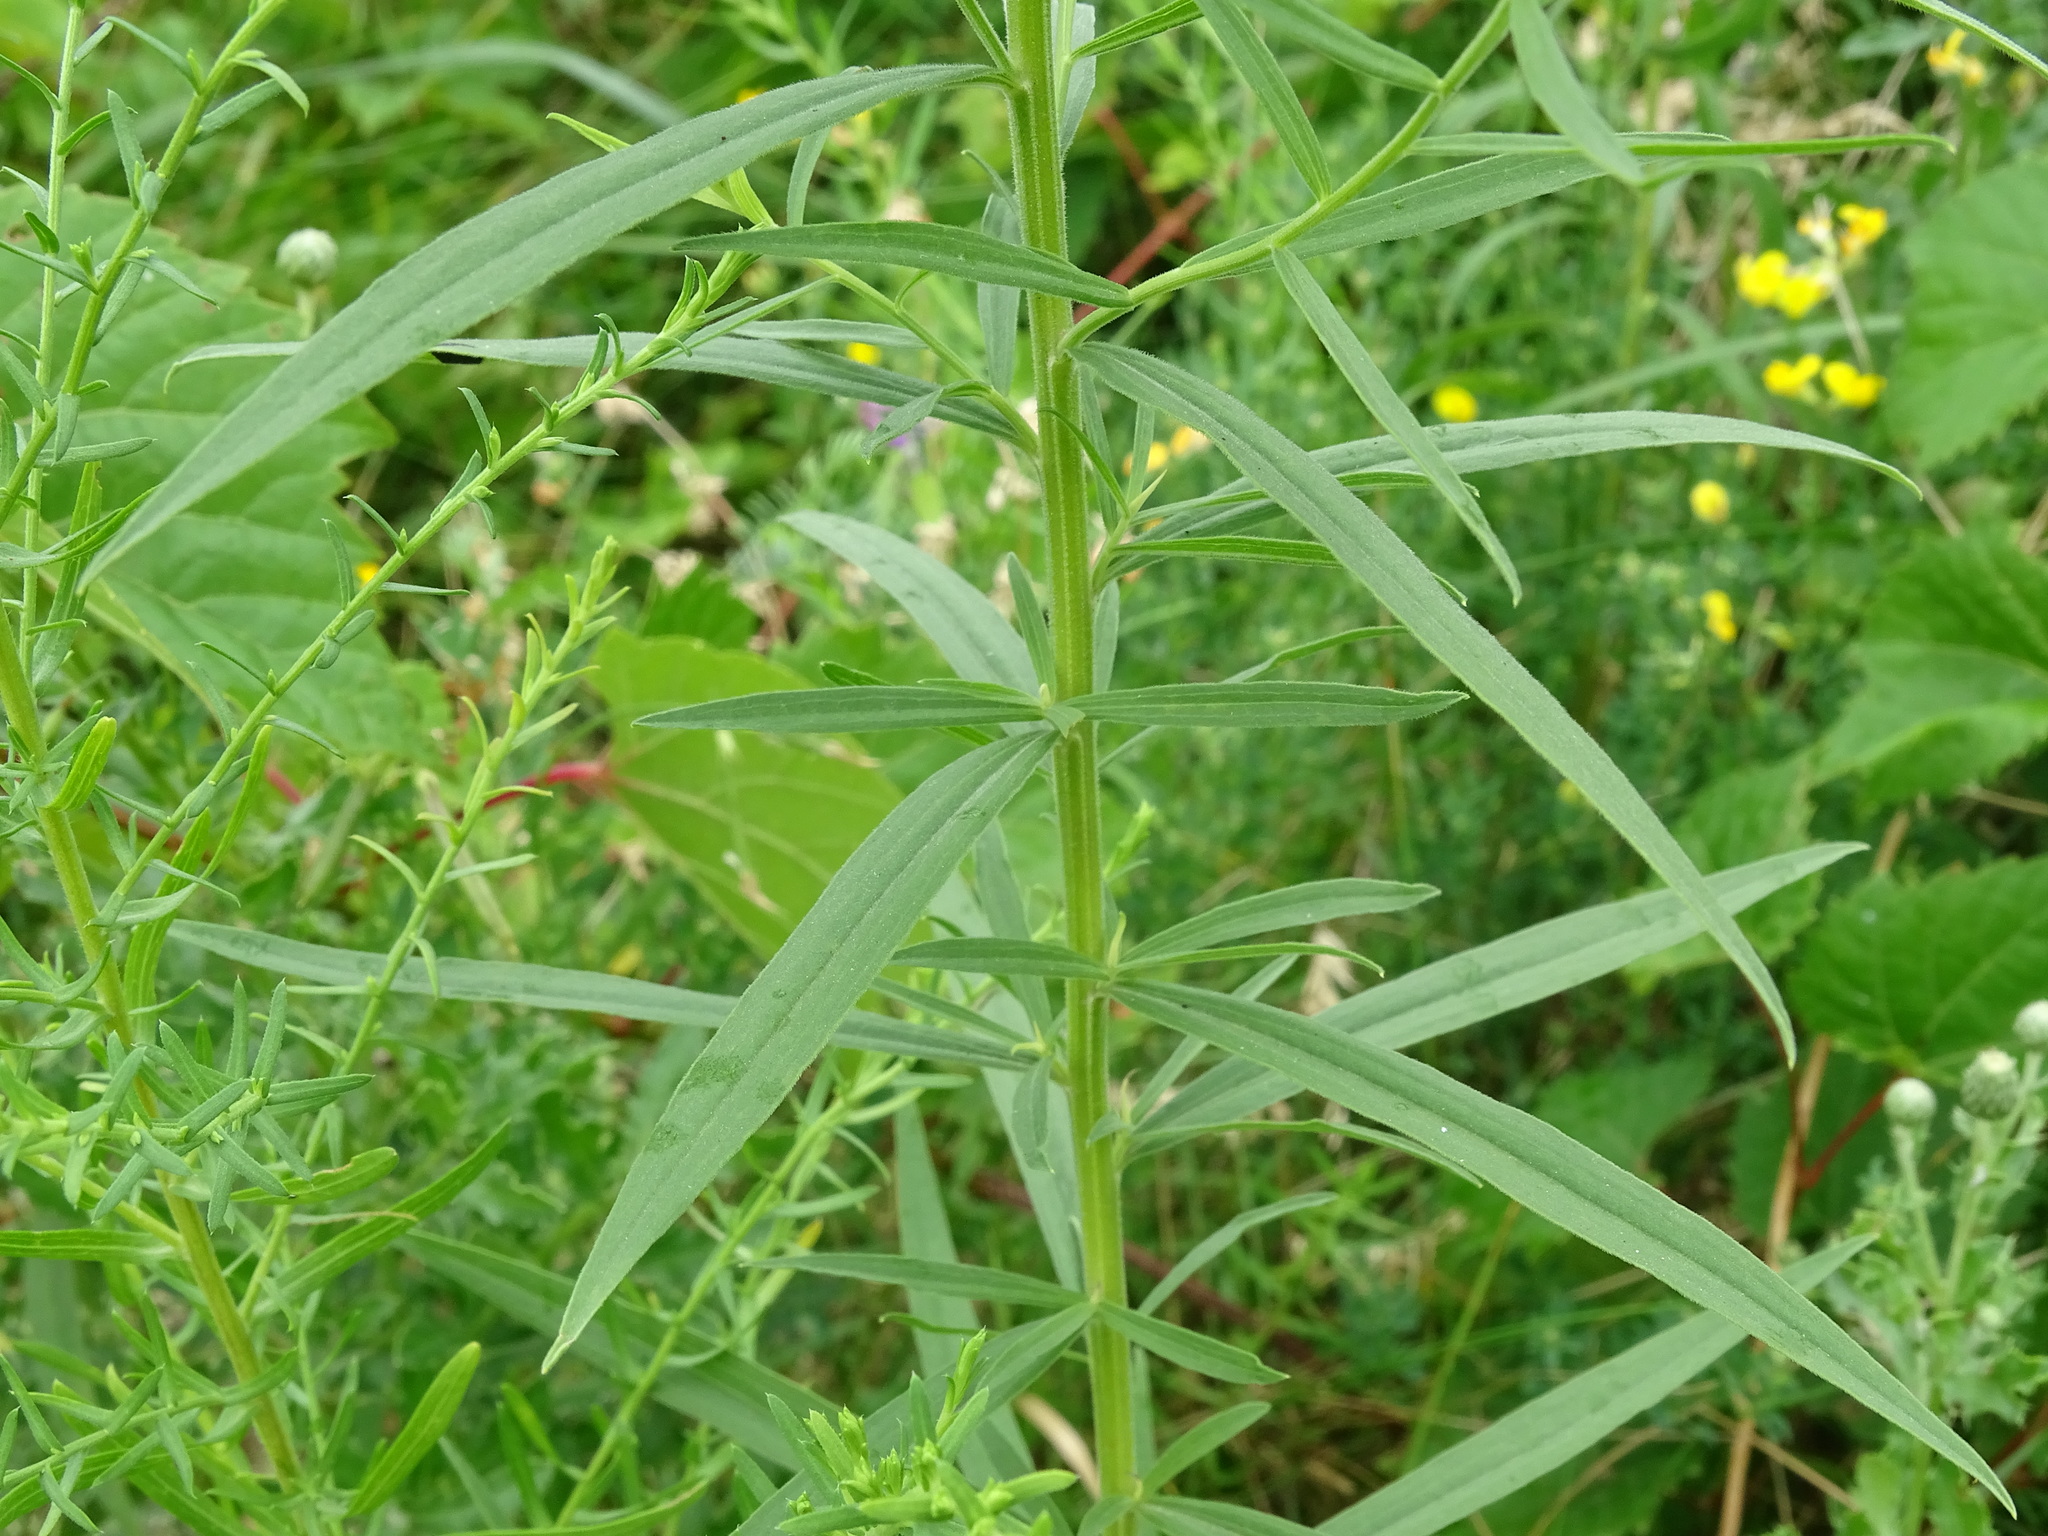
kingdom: Plantae
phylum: Tracheophyta
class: Magnoliopsida
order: Asterales
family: Asteraceae
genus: Euthamia
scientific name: Euthamia graminifolia
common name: Common goldentop
